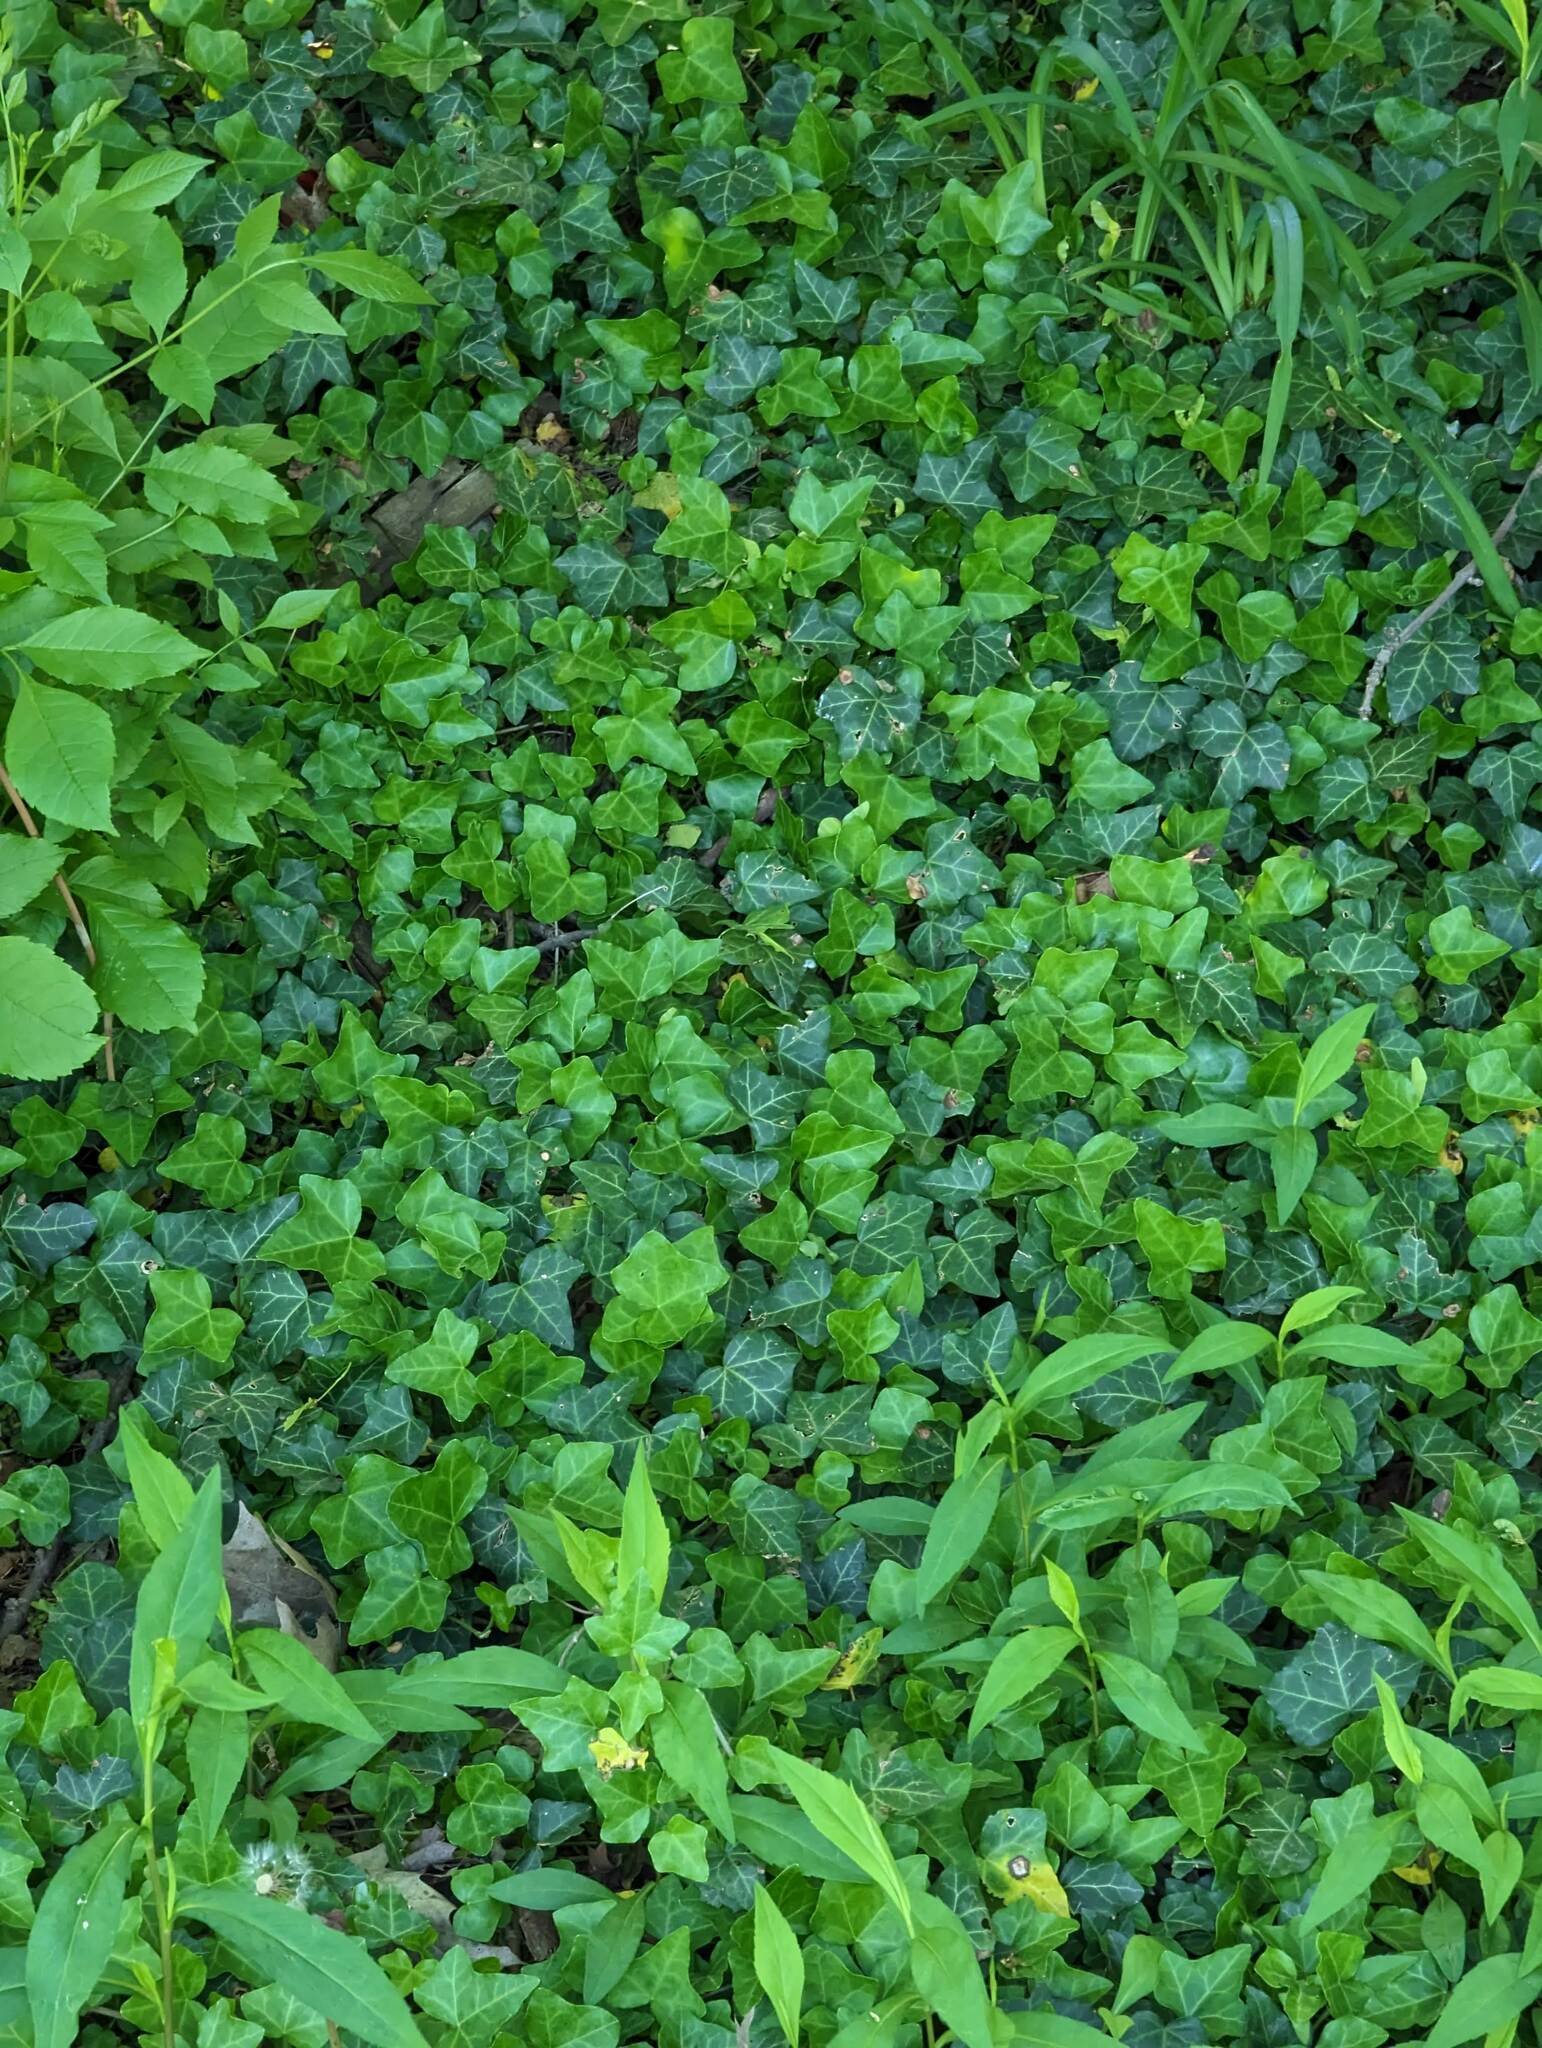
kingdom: Plantae
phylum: Tracheophyta
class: Magnoliopsida
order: Apiales
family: Araliaceae
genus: Hedera
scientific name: Hedera helix
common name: Ivy
